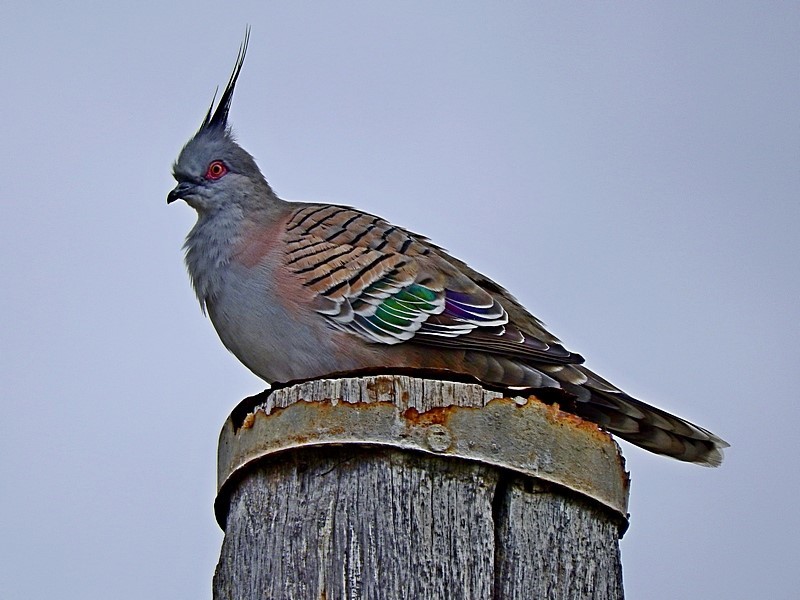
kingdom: Animalia
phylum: Chordata
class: Aves
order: Columbiformes
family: Columbidae
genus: Ocyphaps
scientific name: Ocyphaps lophotes
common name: Crested pigeon
